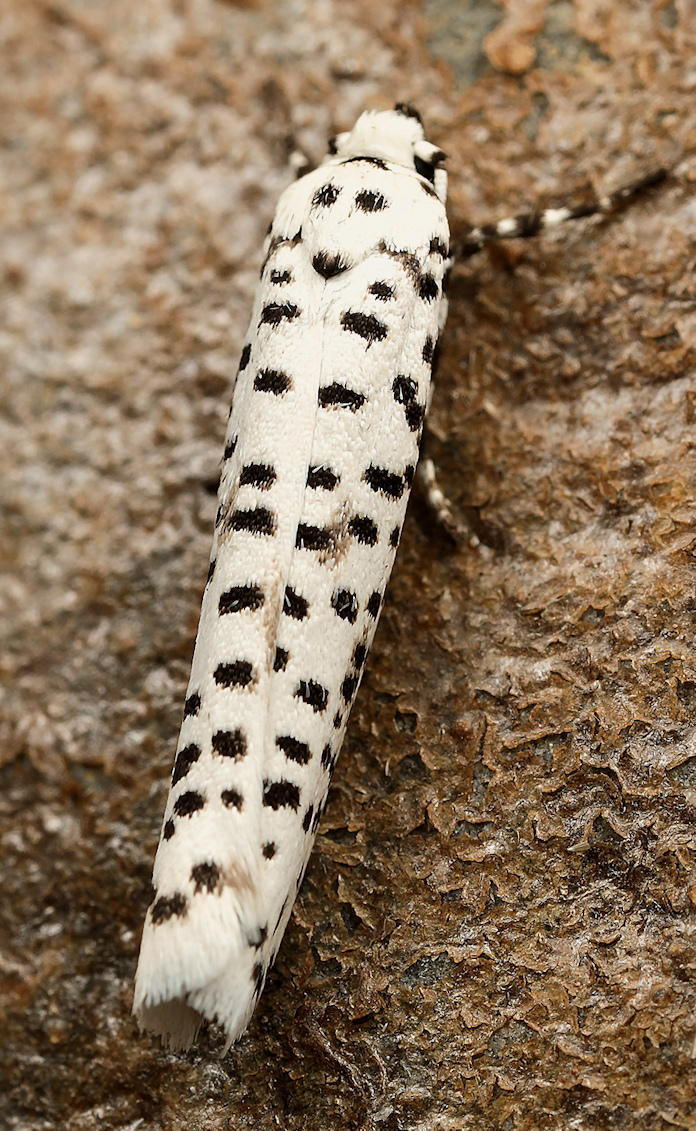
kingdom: Animalia
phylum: Arthropoda
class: Insecta
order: Lepidoptera
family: Yponomeutidae
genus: Yponomeuta
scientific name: Yponomeuta strigillata
